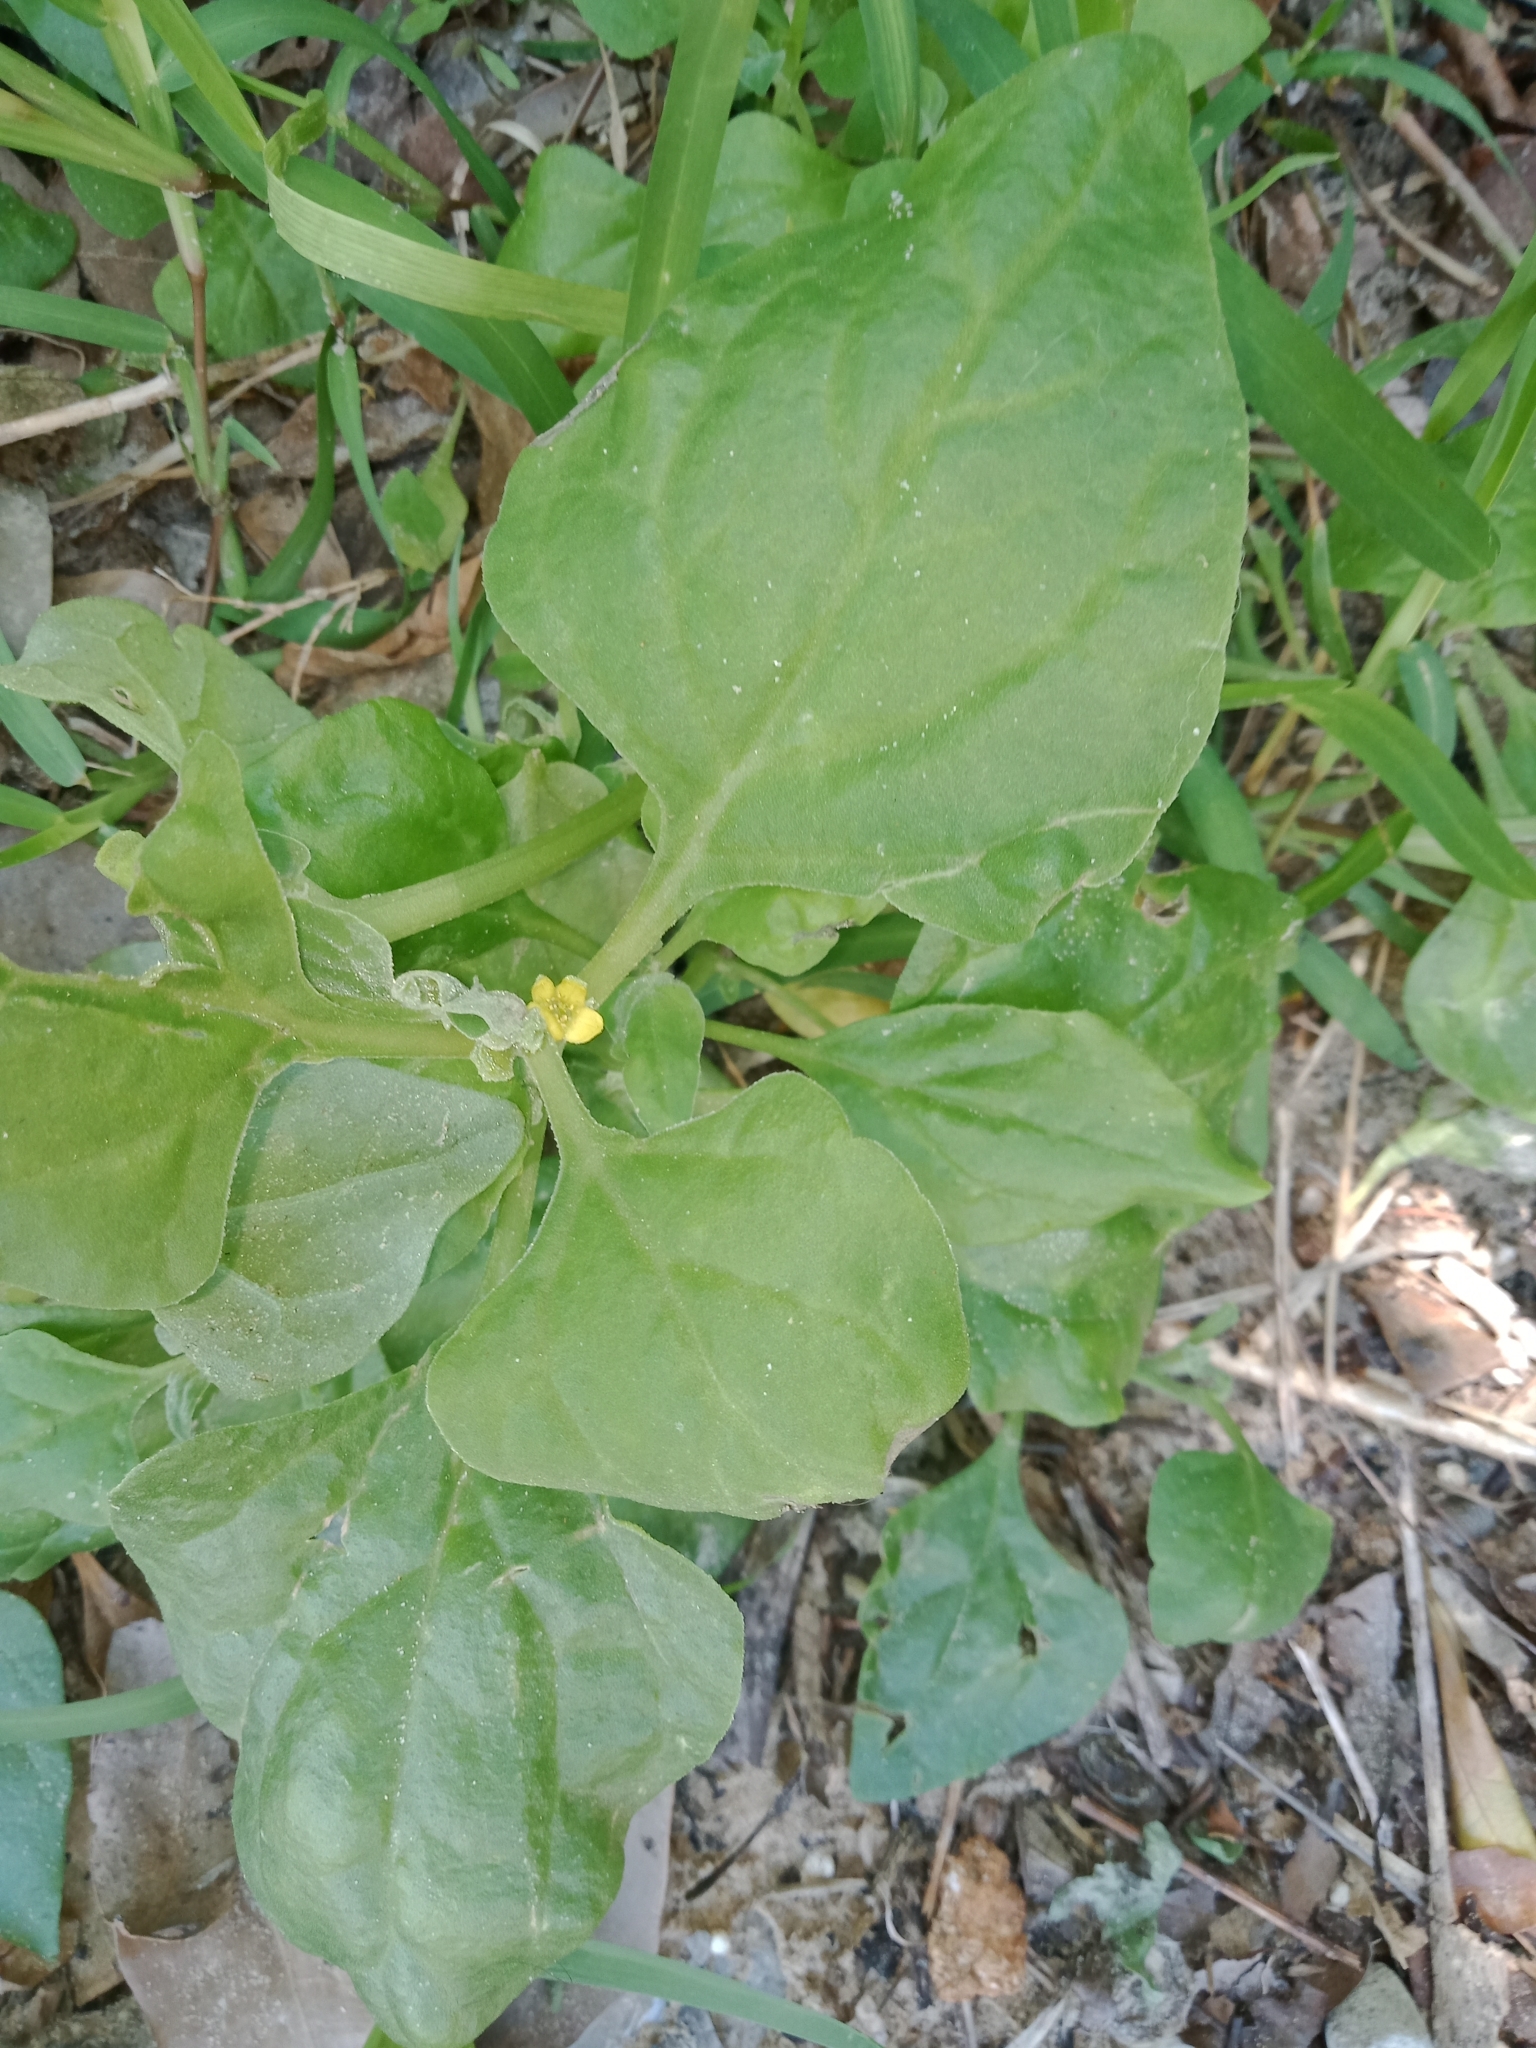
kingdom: Plantae
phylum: Tracheophyta
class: Magnoliopsida
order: Caryophyllales
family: Aizoaceae
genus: Tetragonia
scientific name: Tetragonia tetragonoides
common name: New zealand-spinach
